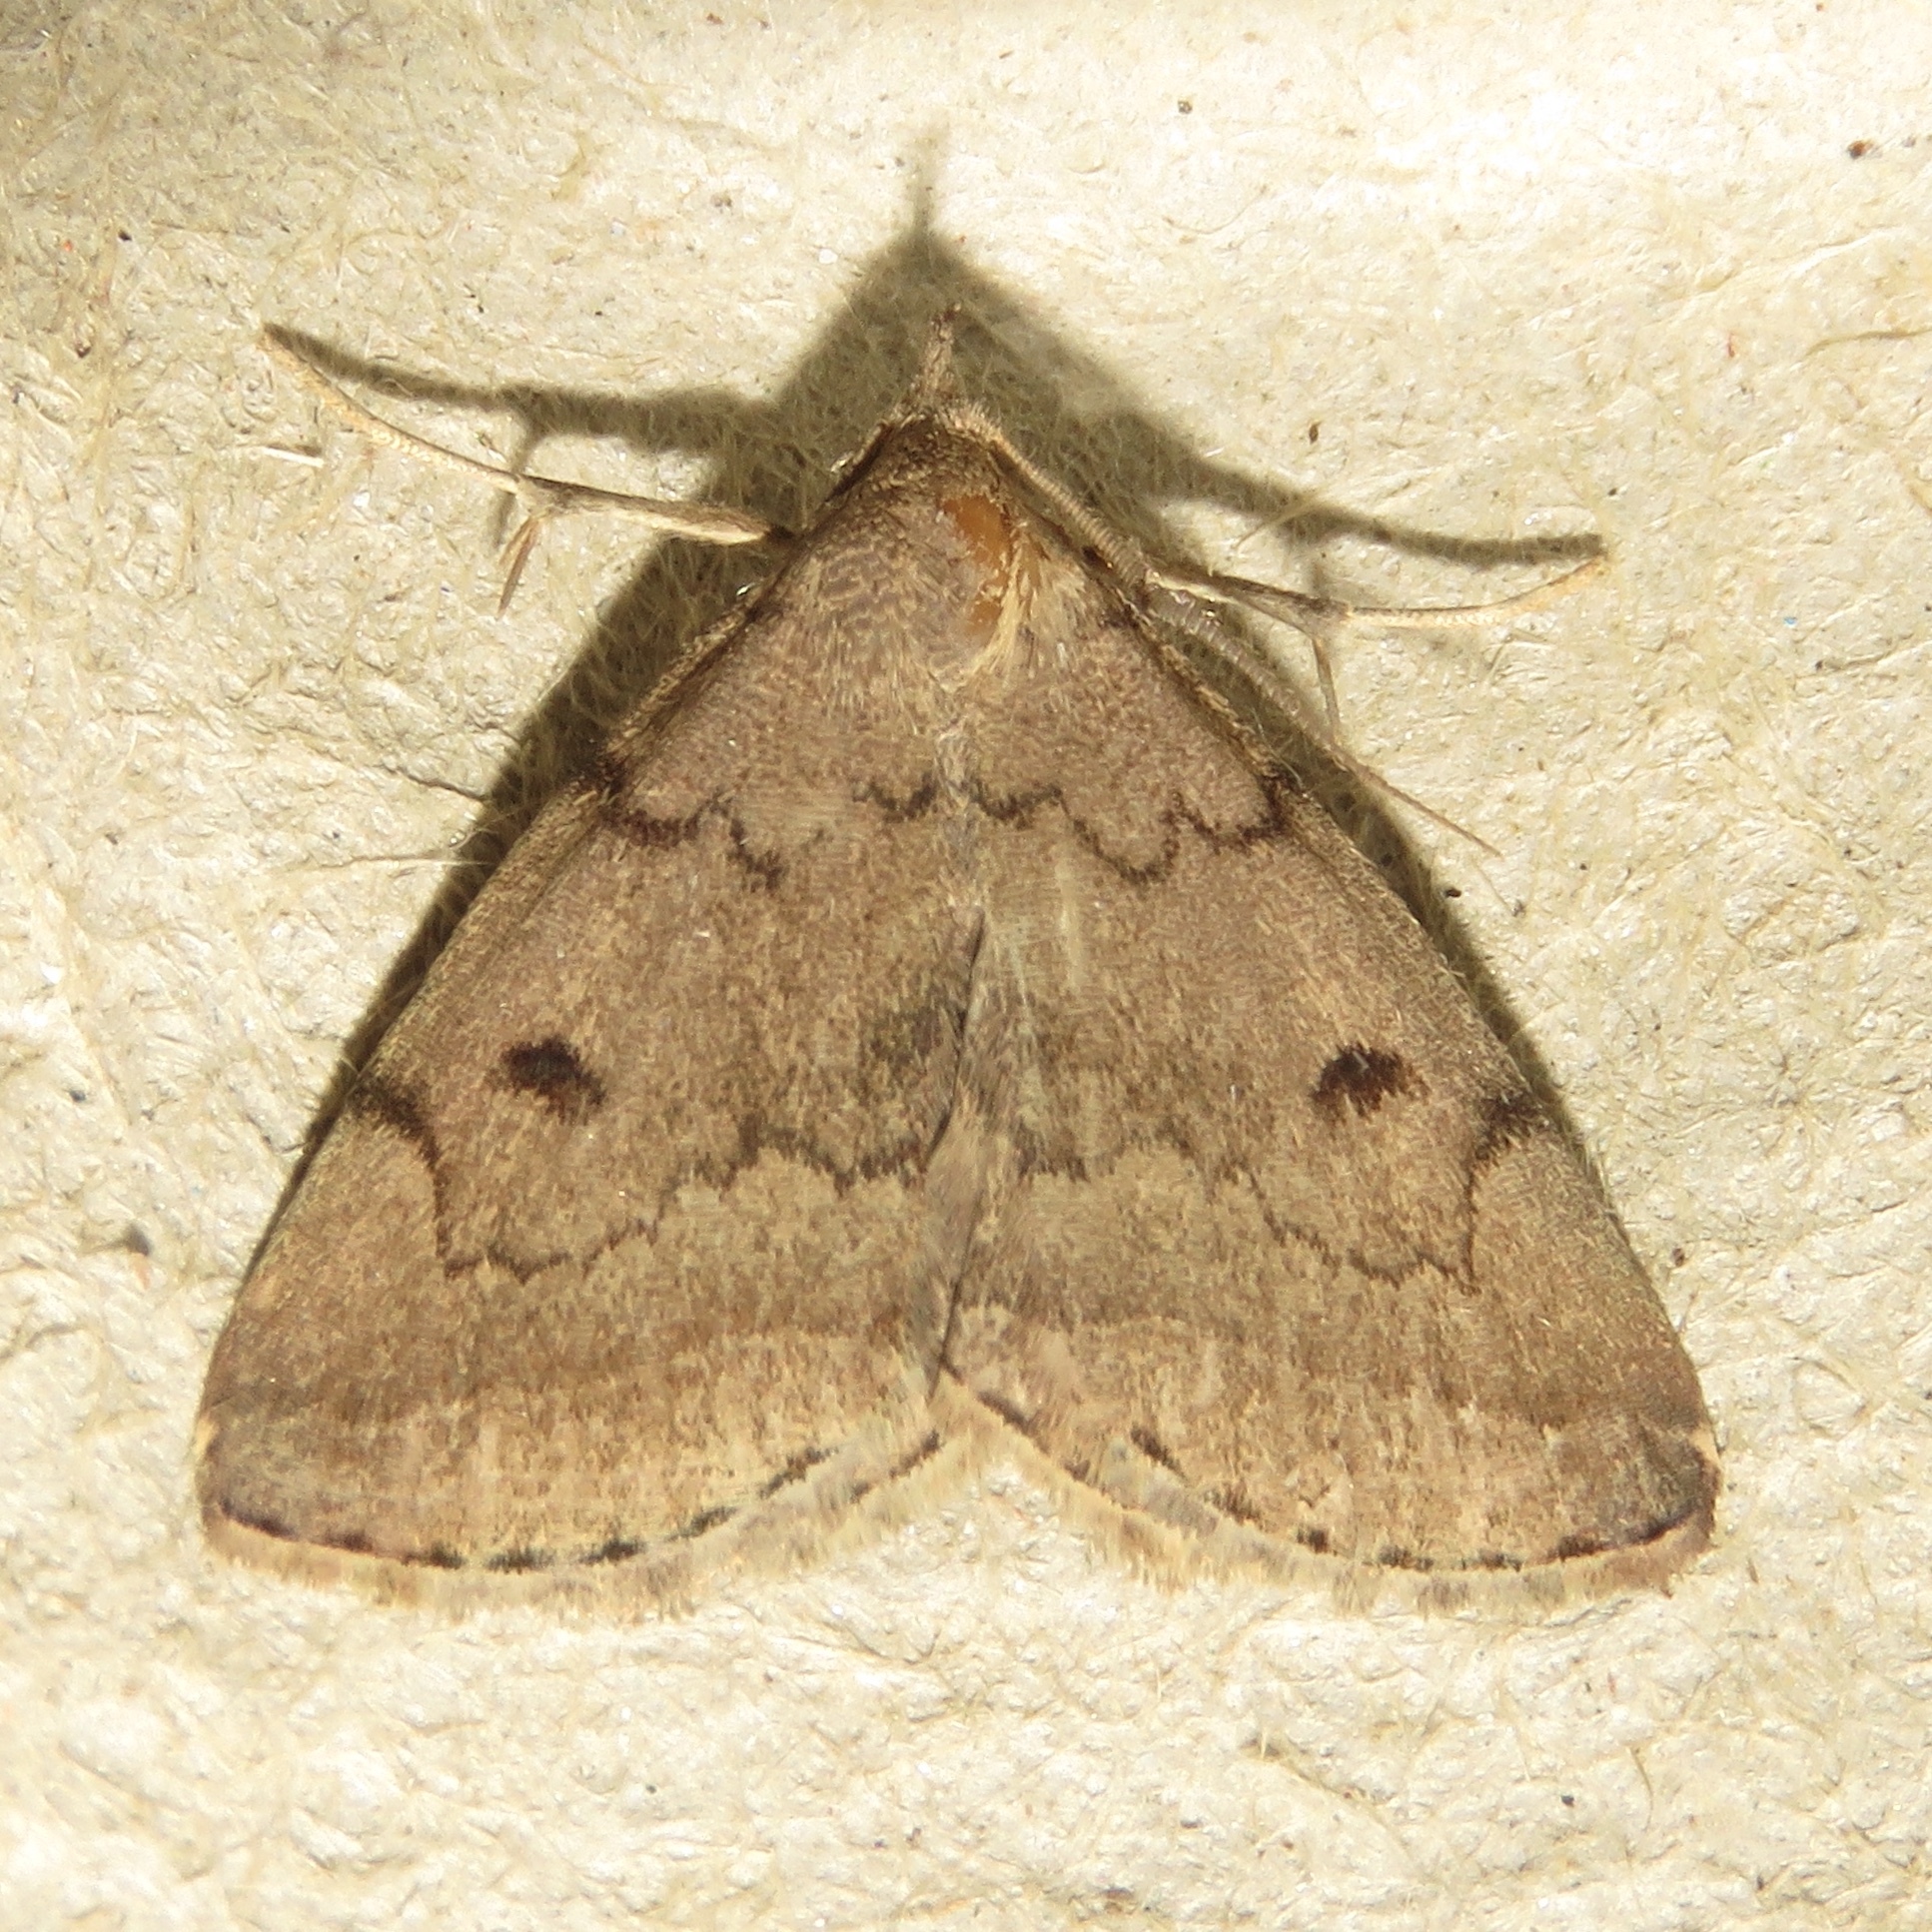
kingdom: Animalia
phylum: Arthropoda
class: Insecta
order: Lepidoptera
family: Erebidae
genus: Zanclognatha
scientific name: Zanclognatha dentata
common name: Toothed fan-foot
